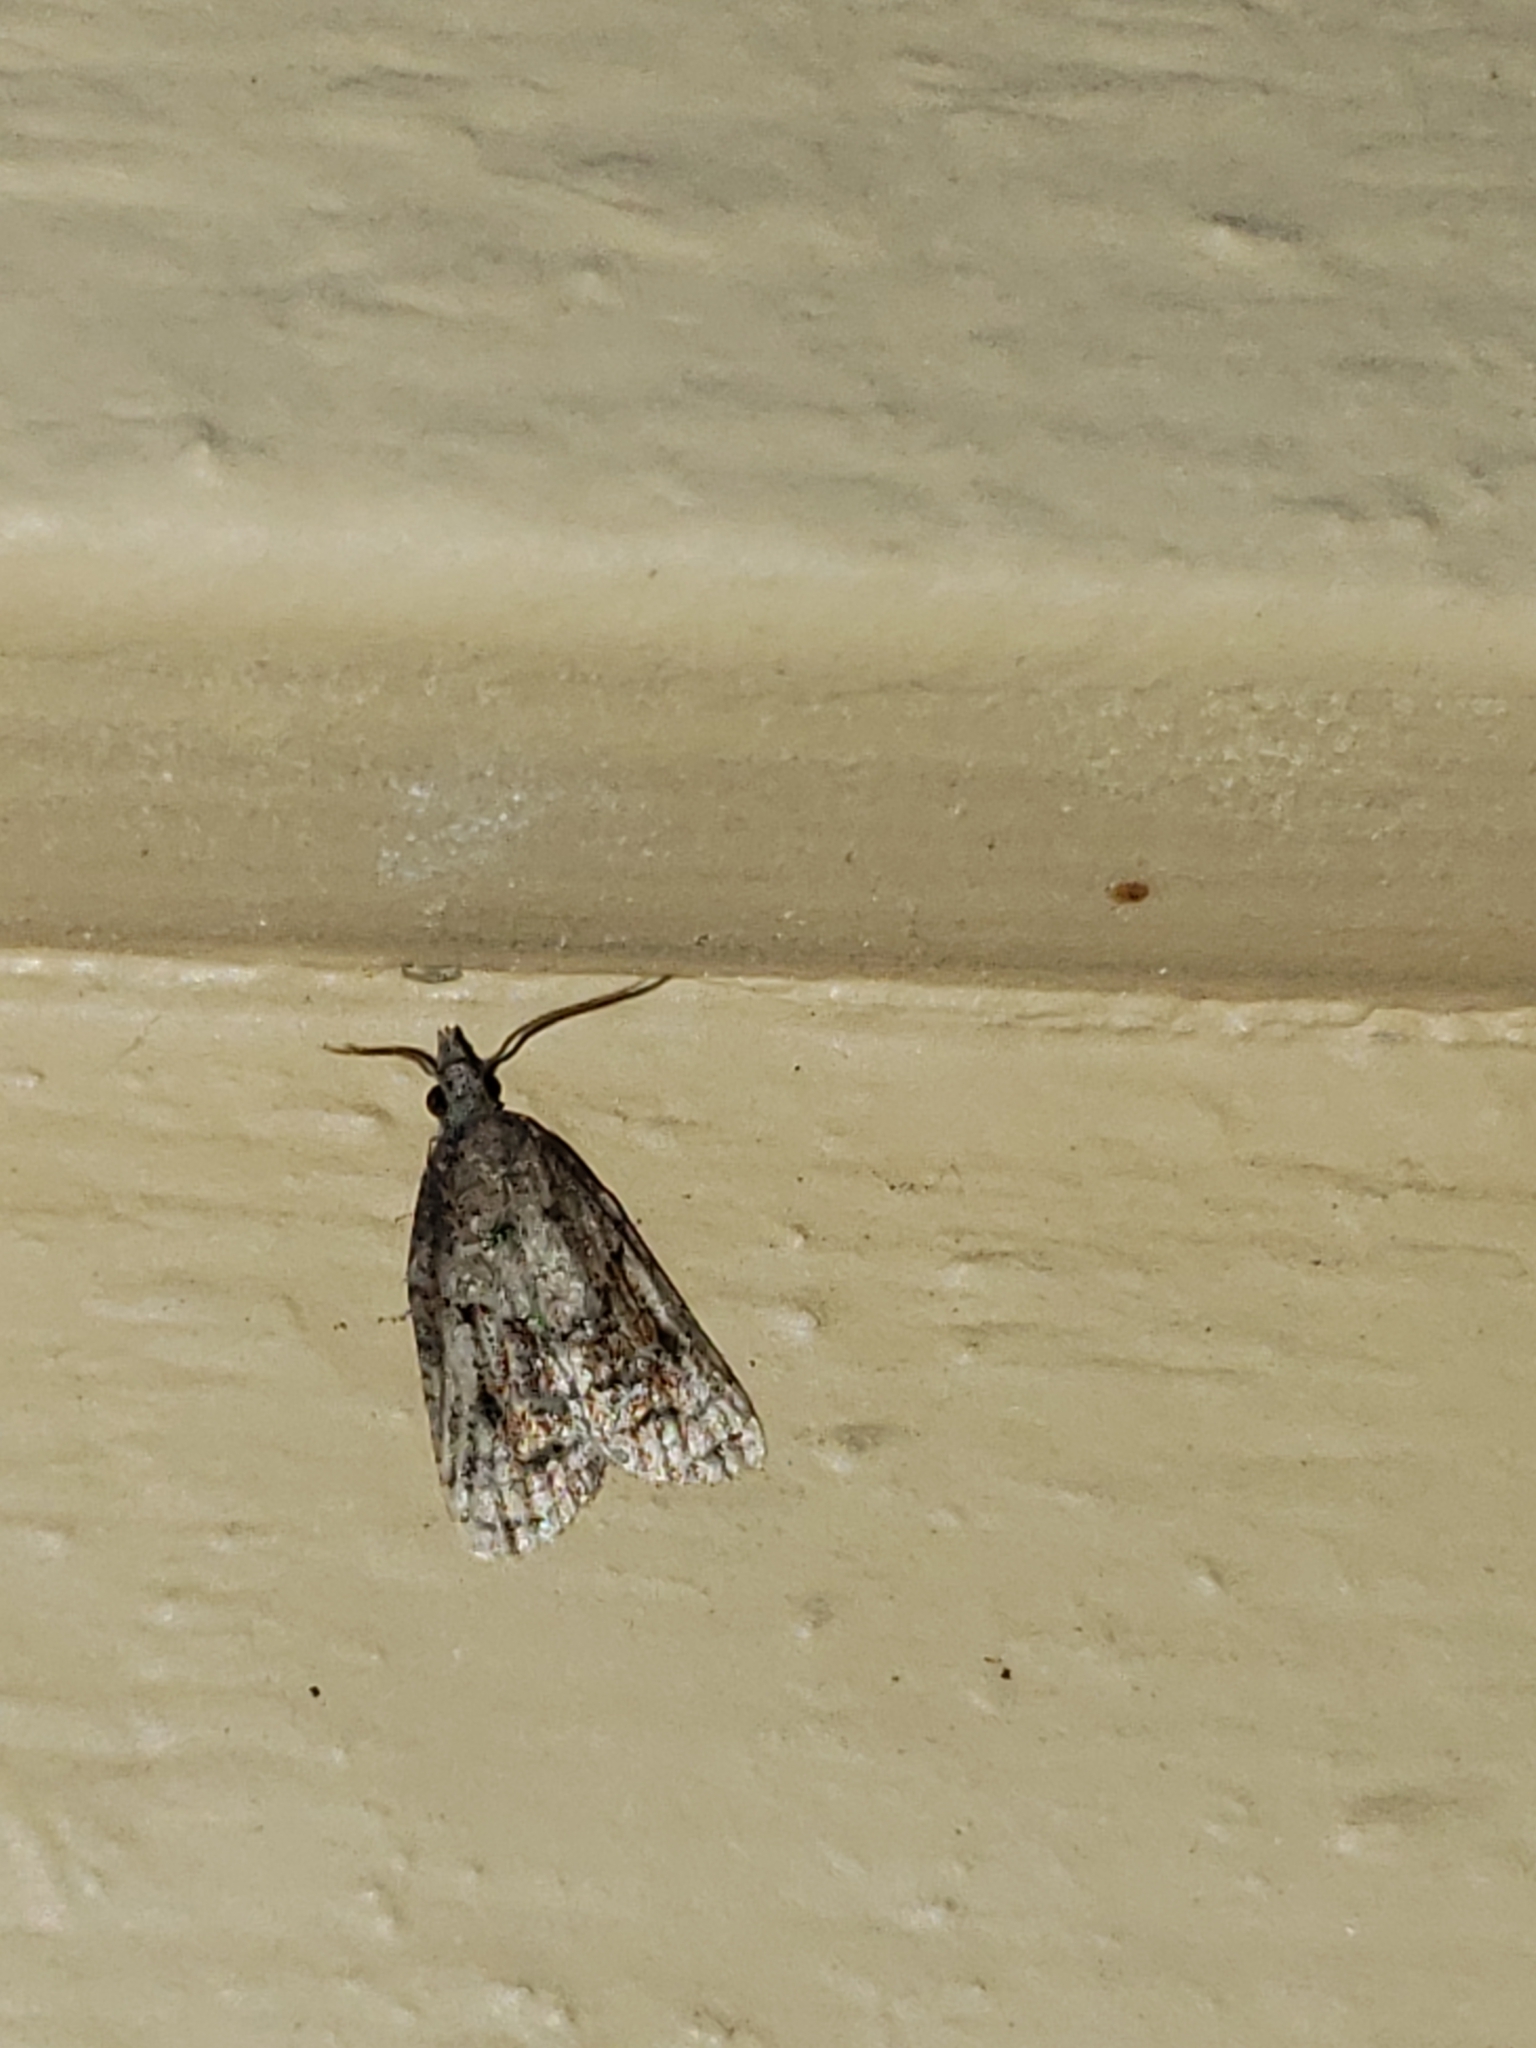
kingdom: Animalia
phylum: Arthropoda
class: Insecta
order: Lepidoptera
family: Tortricidae
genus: Platynota
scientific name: Platynota idaeusalis
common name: Tufted apple bud moth
